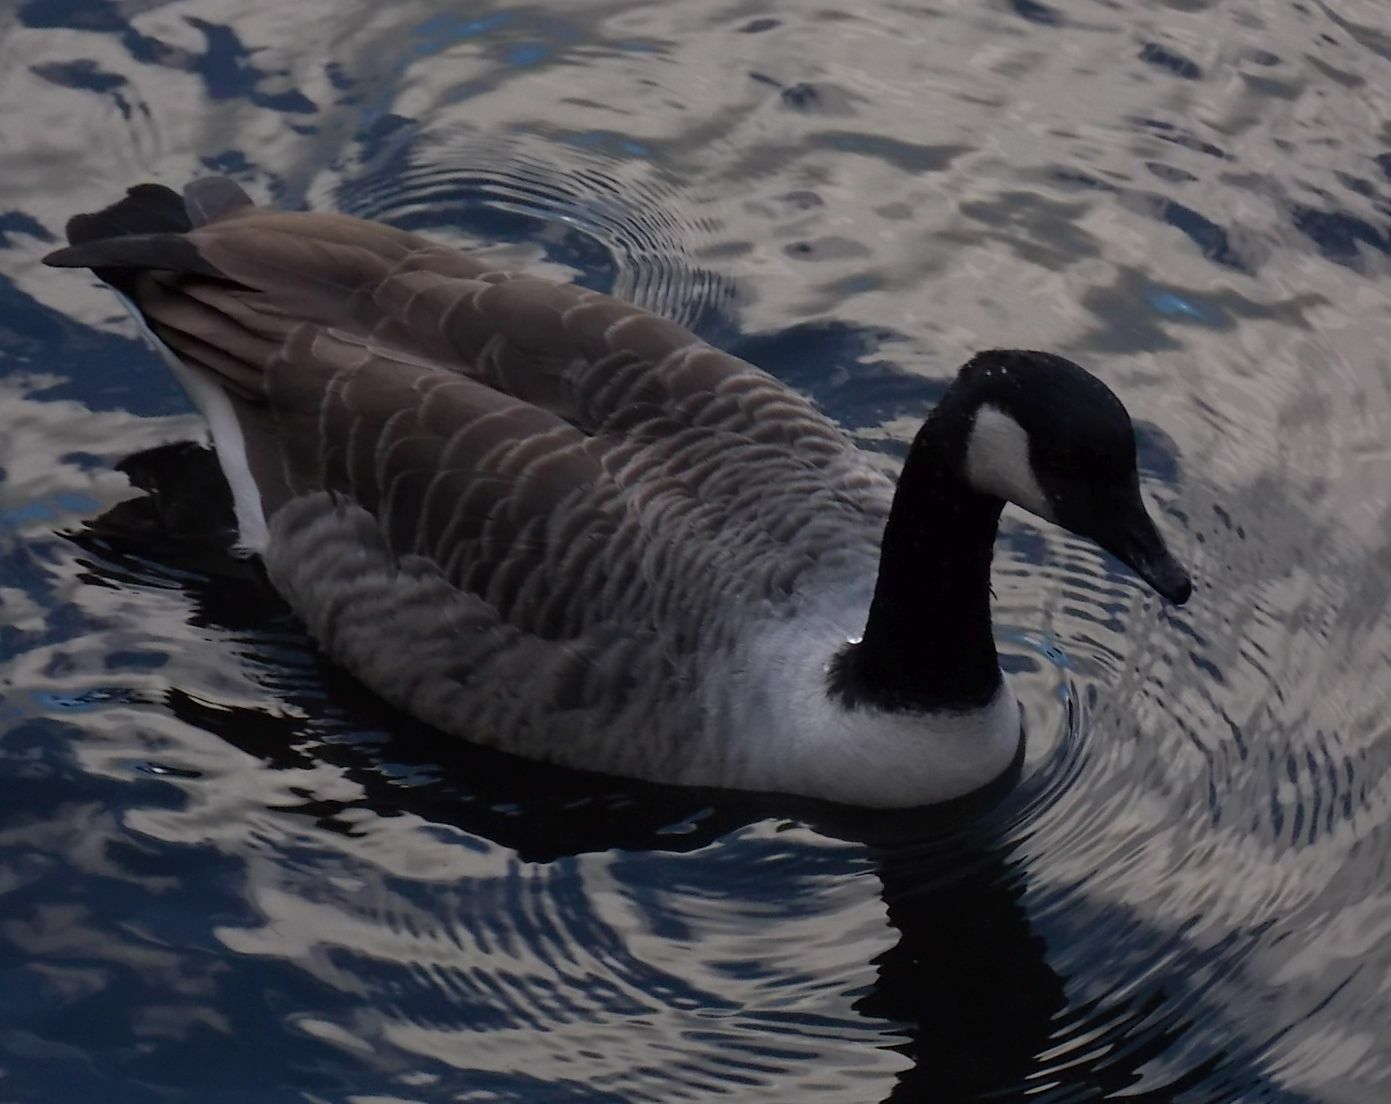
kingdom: Animalia
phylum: Chordata
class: Aves
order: Anseriformes
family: Anatidae
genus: Branta
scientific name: Branta canadensis
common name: Canada goose
